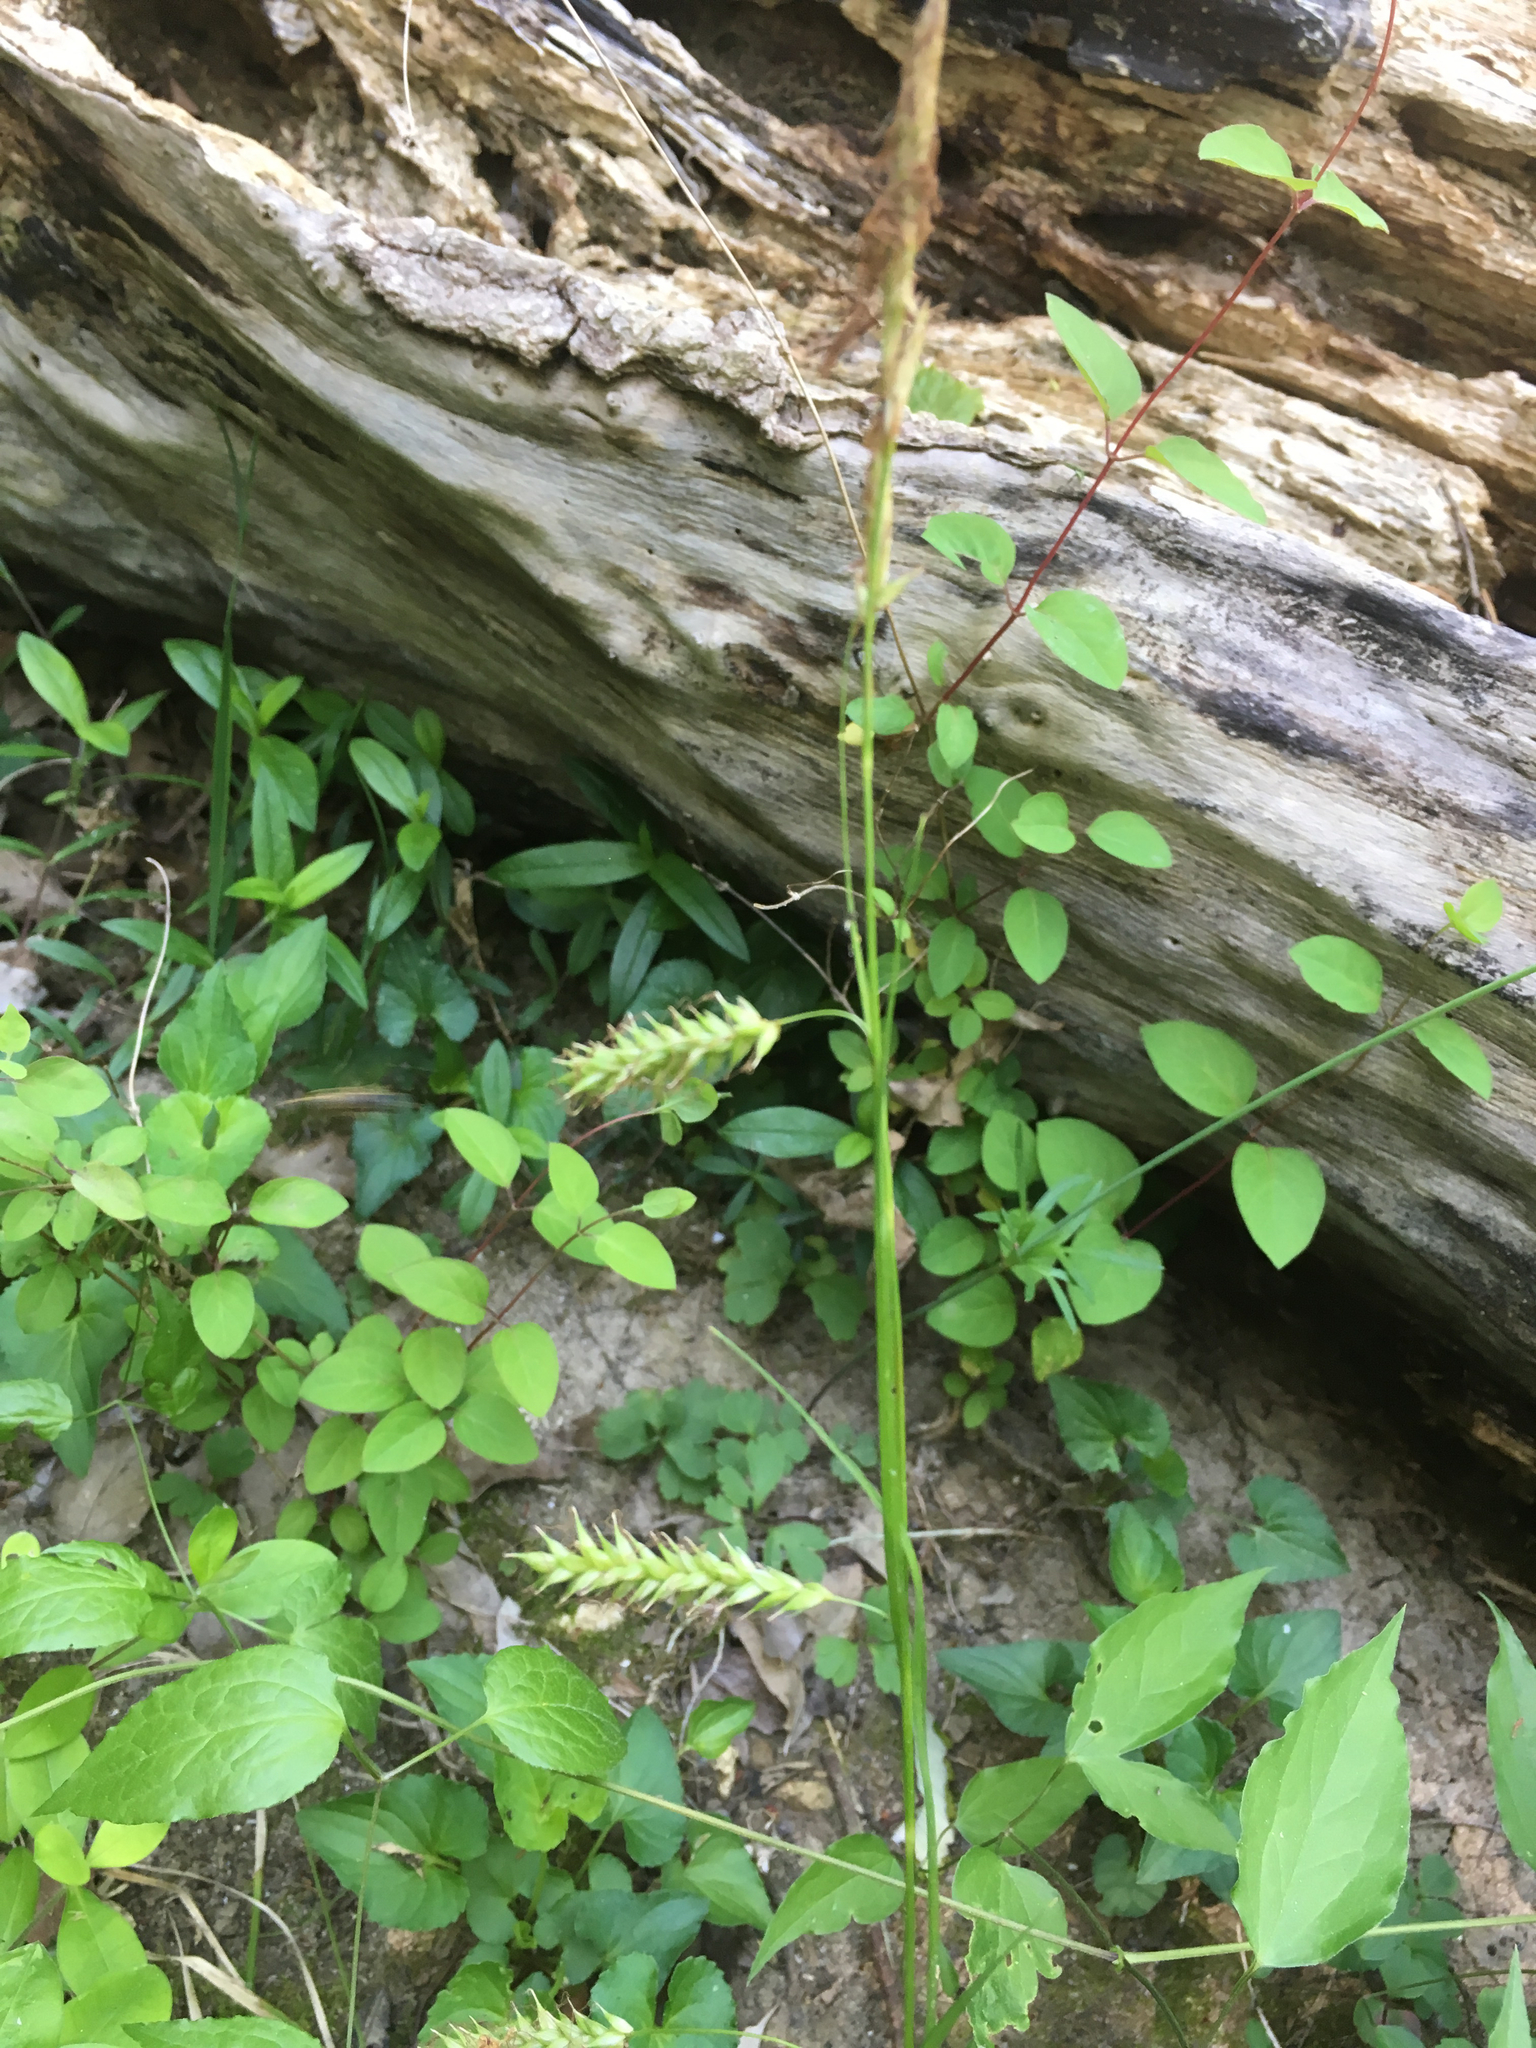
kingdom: Plantae
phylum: Tracheophyta
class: Liliopsida
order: Poales
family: Cyperaceae
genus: Carex
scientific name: Carex cherokeensis
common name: Cherokee sedge
